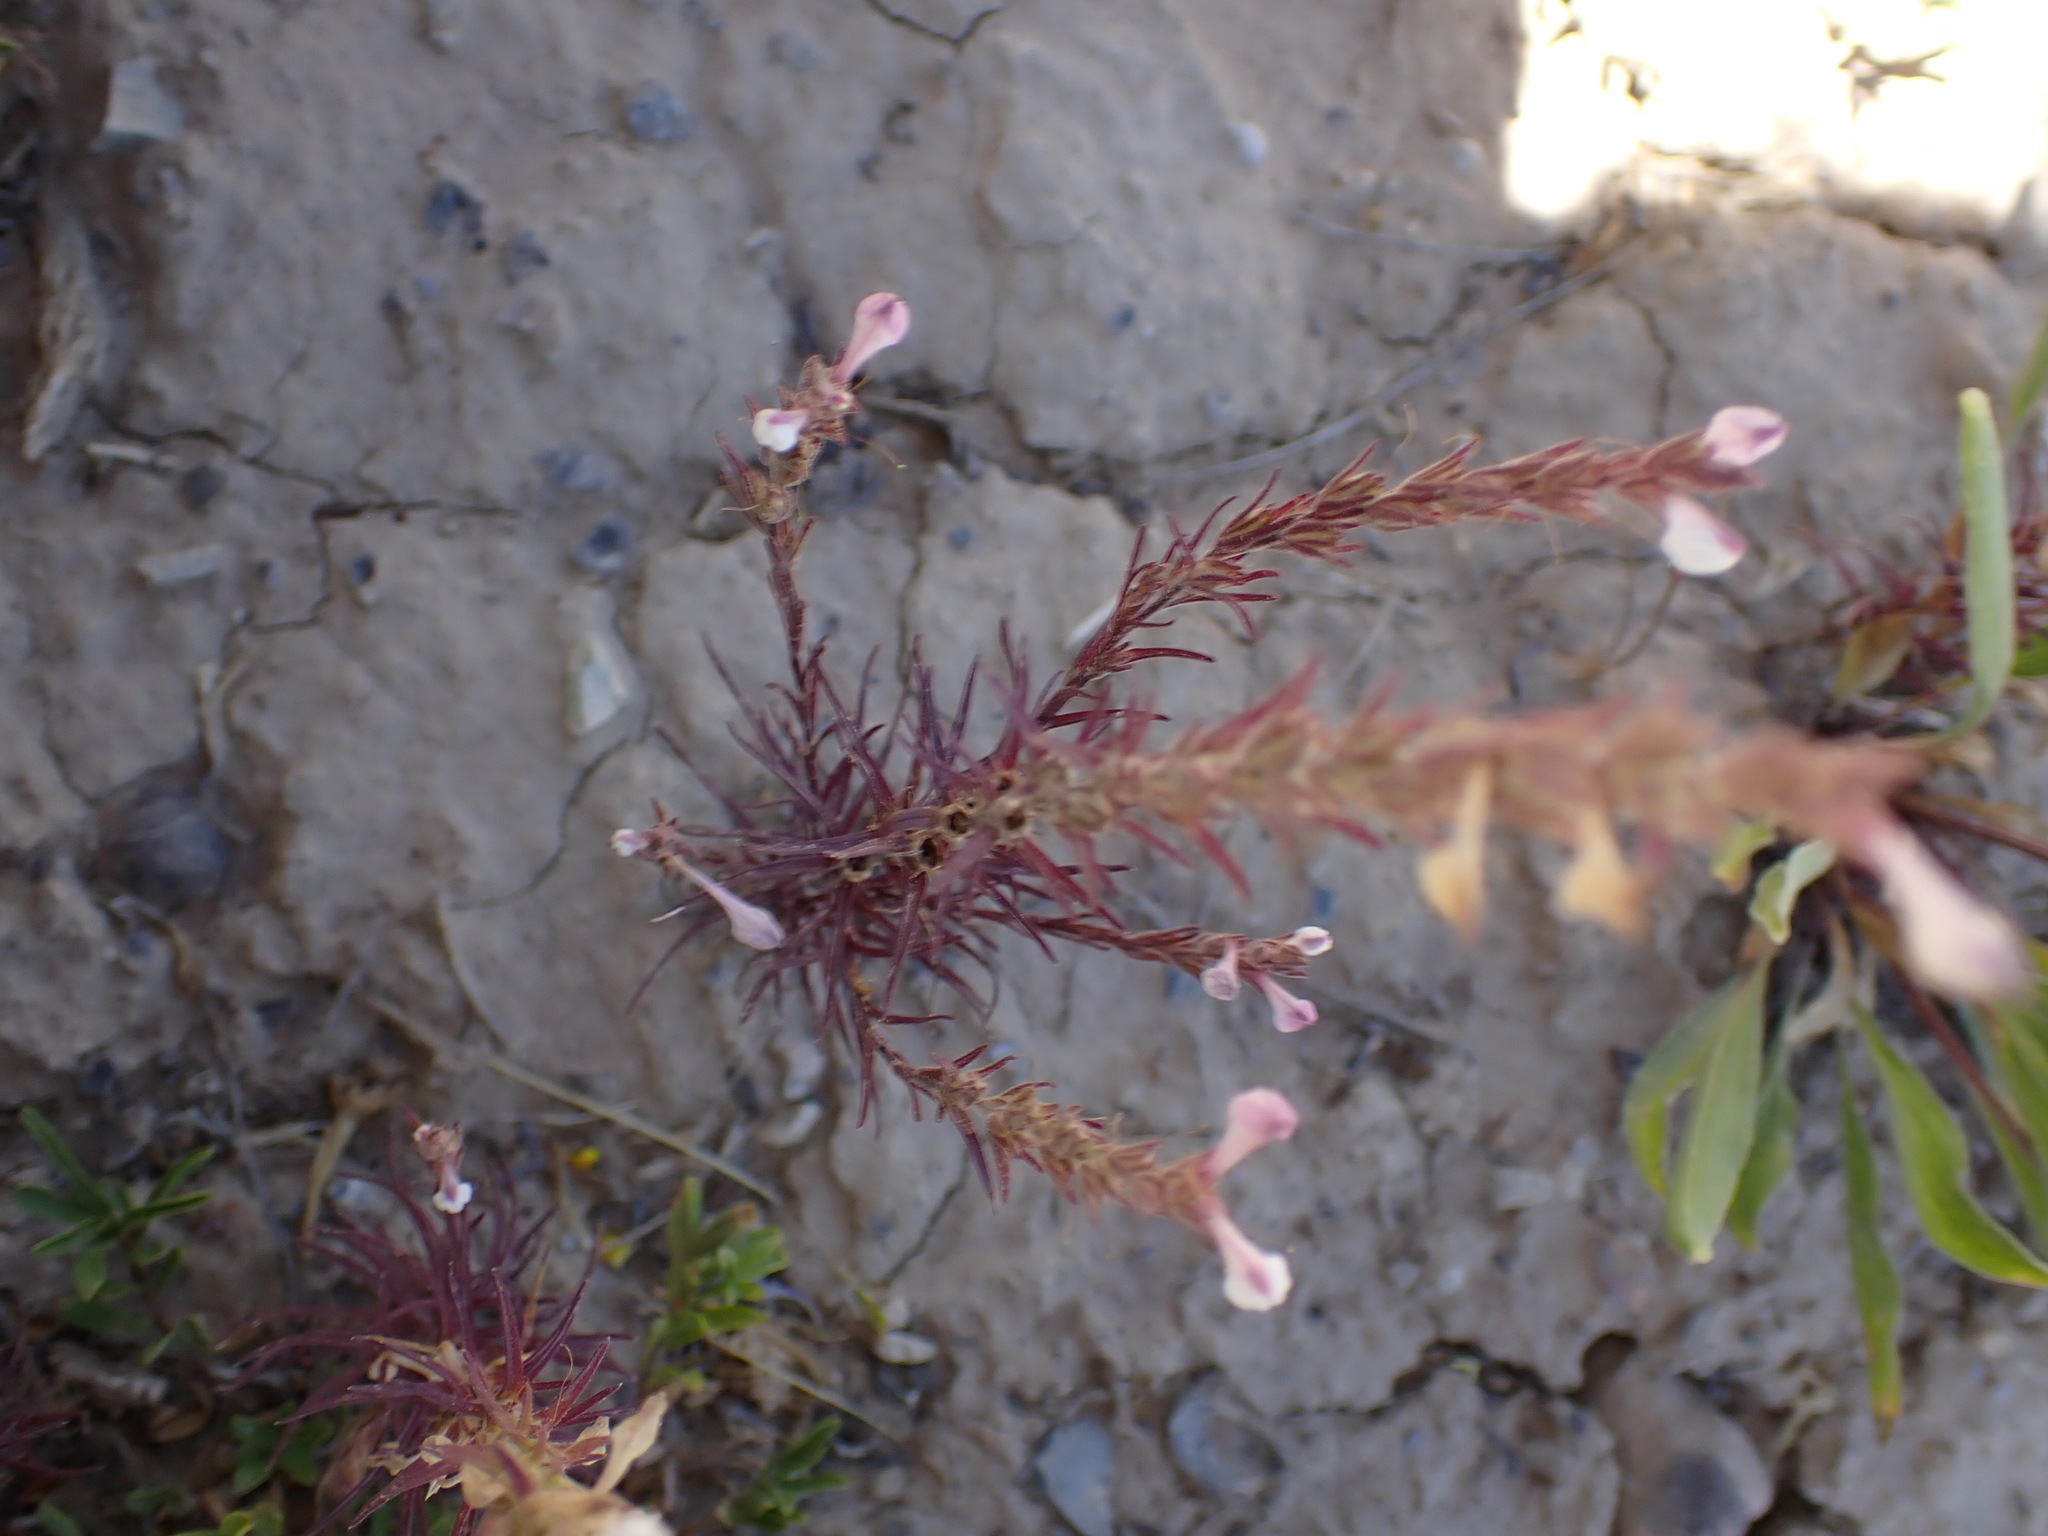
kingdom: Plantae
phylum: Tracheophyta
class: Magnoliopsida
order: Lamiales
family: Orobanchaceae
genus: Orthocarpus
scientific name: Orthocarpus purpureoalbus
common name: Violet owl-clover
